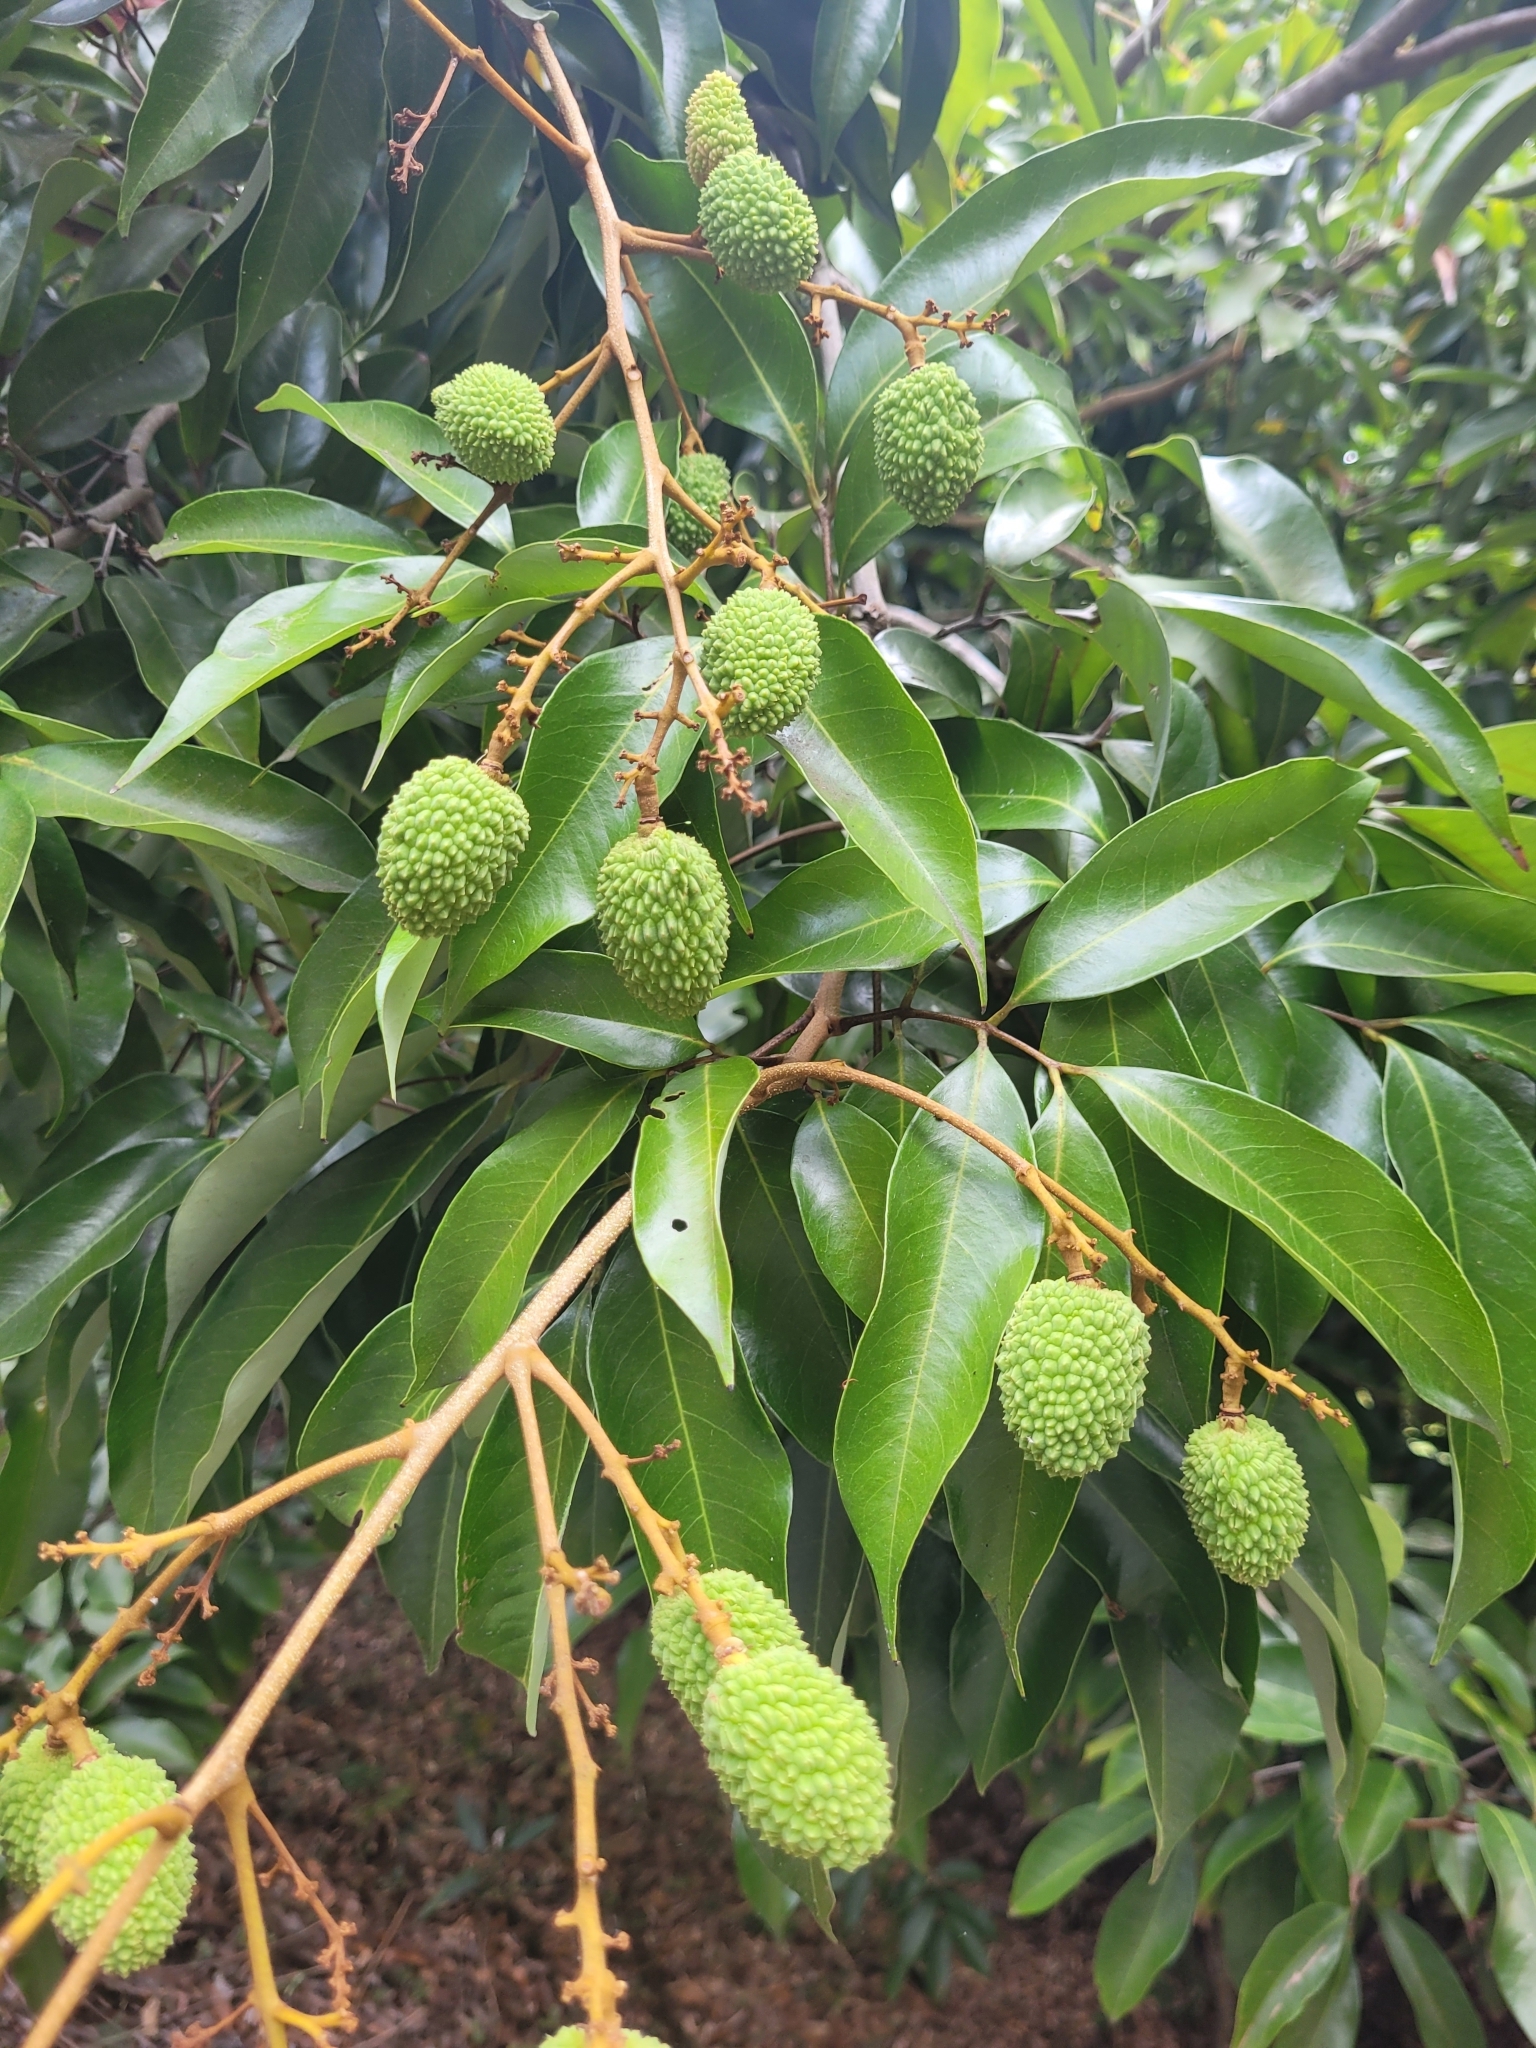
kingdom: Plantae
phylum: Tracheophyta
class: Magnoliopsida
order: Sapindales
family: Sapindaceae
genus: Litchi
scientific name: Litchi chinensis
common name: Litchi
